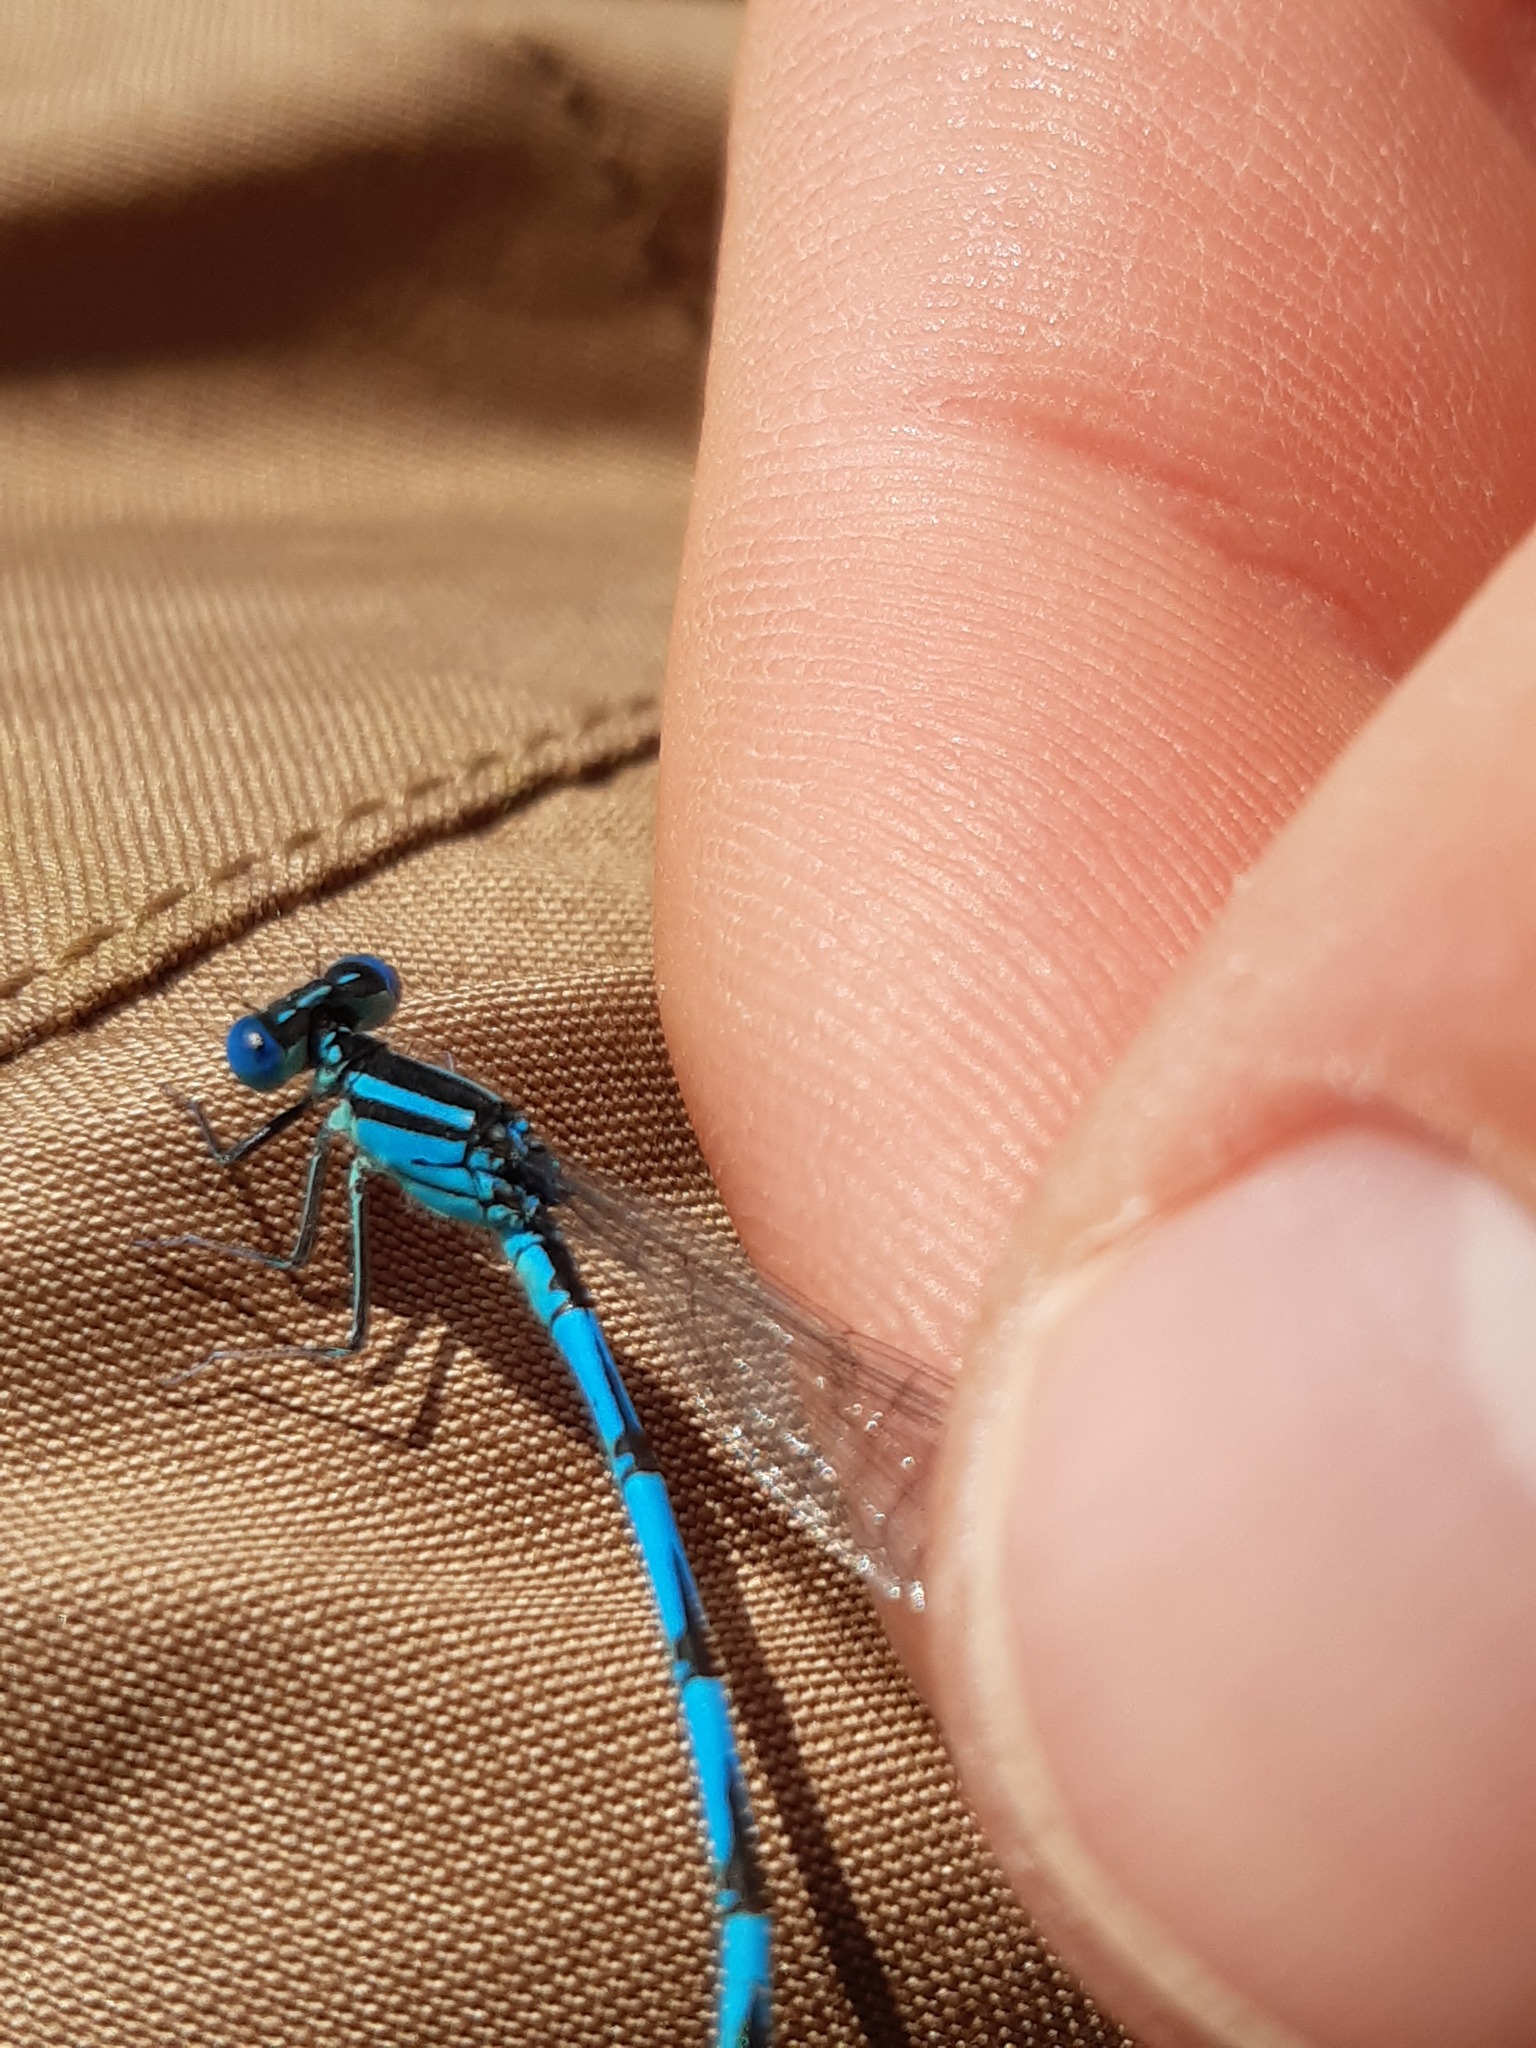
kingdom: Animalia
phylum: Arthropoda
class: Insecta
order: Odonata
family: Coenagrionidae
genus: Erythromma
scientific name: Erythromma lindenii
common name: Blue-eye
